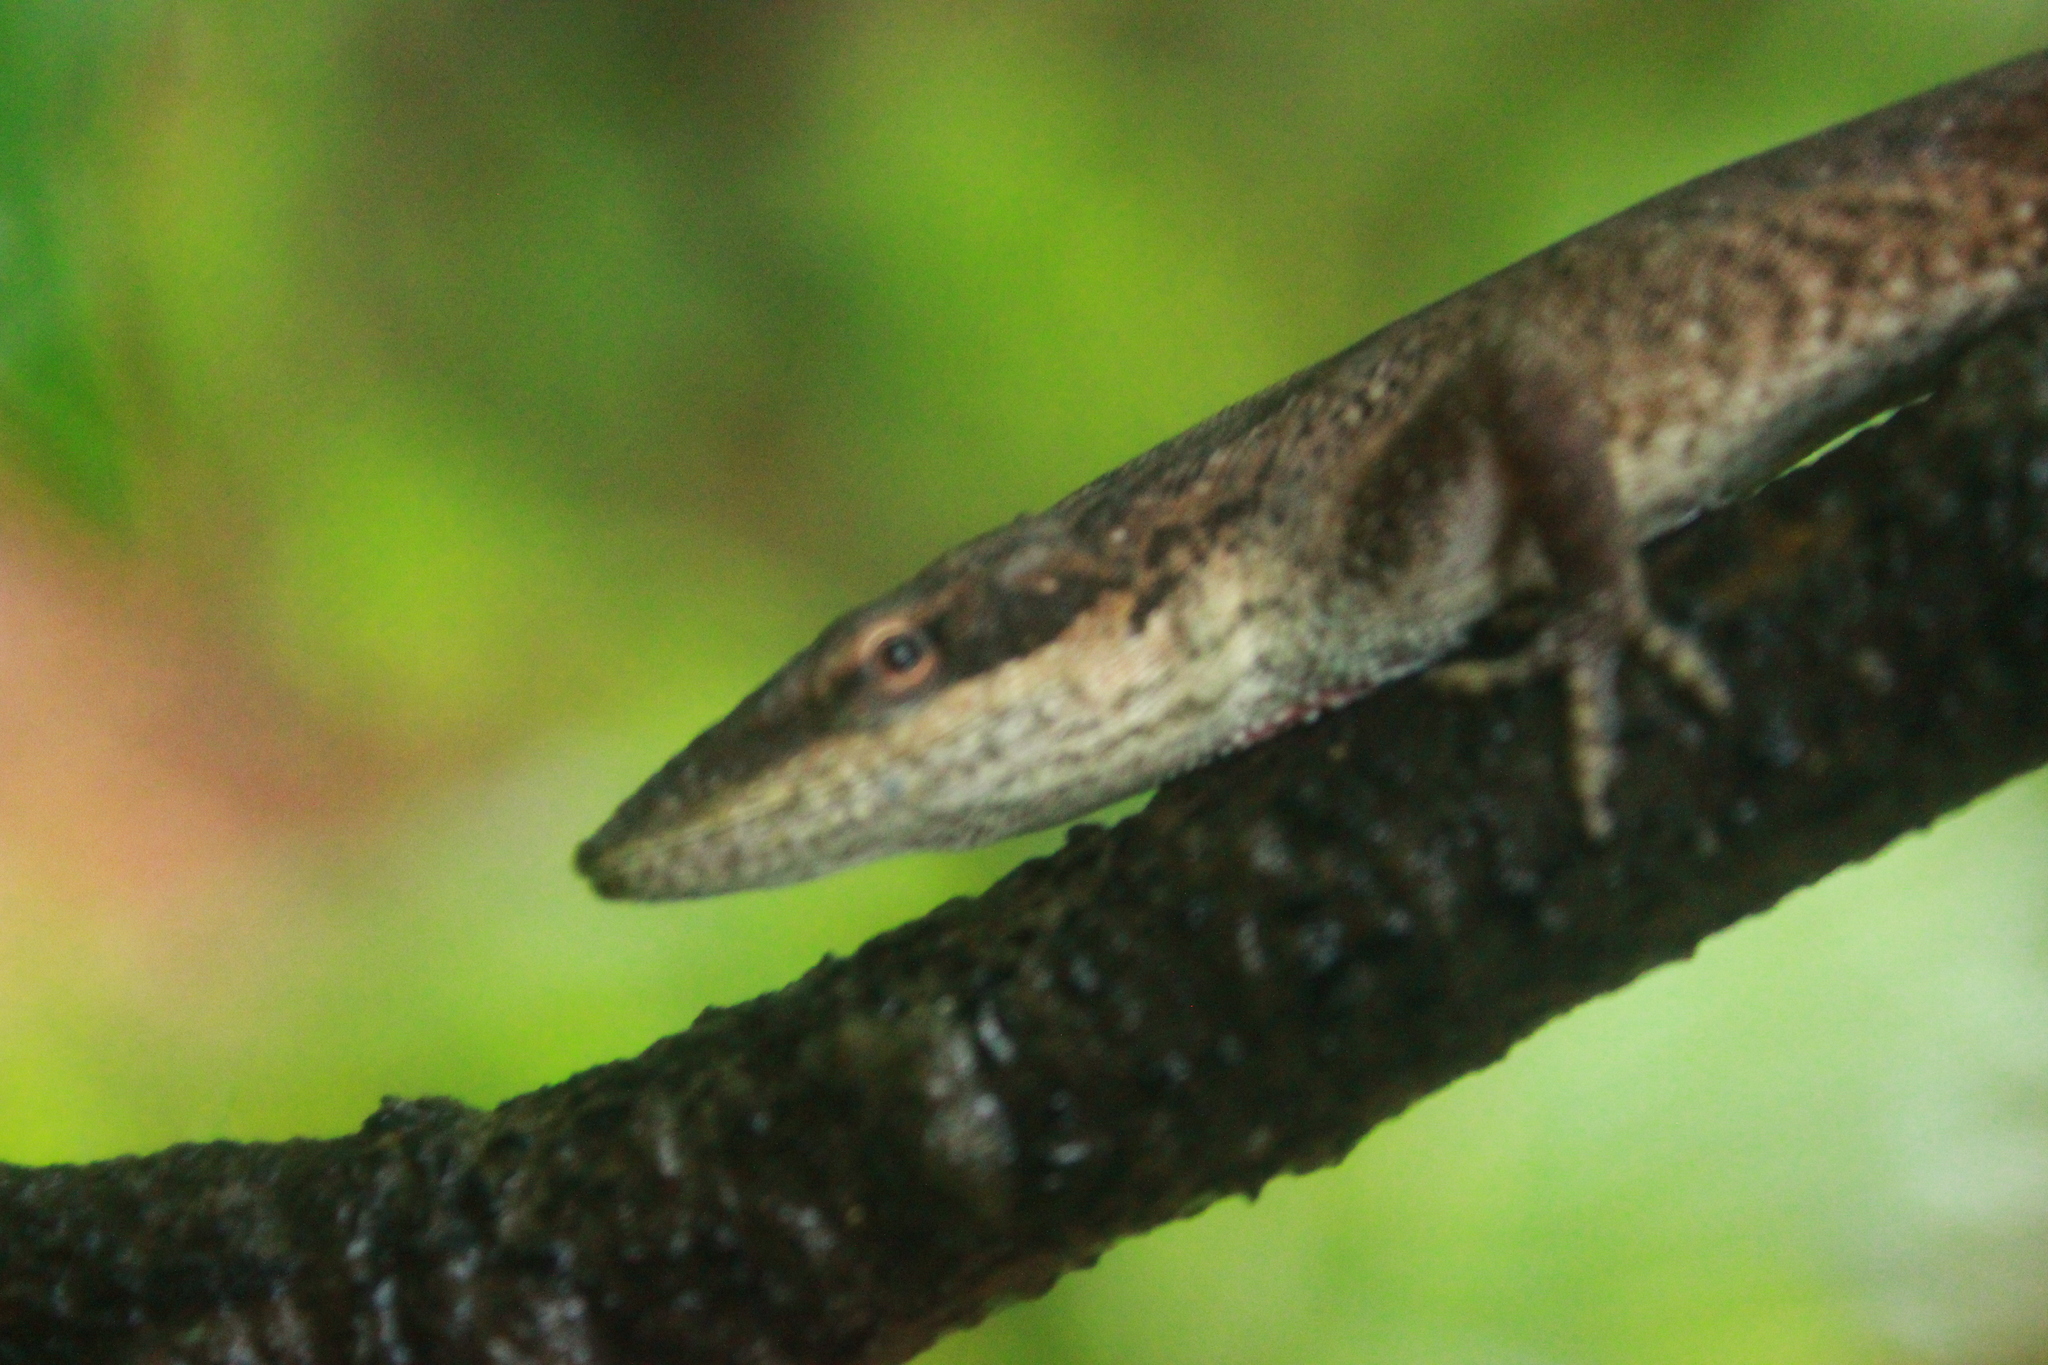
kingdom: Animalia
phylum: Chordata
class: Squamata
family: Dactyloidae
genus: Anolis
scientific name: Anolis carolinensis
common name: Green anole
